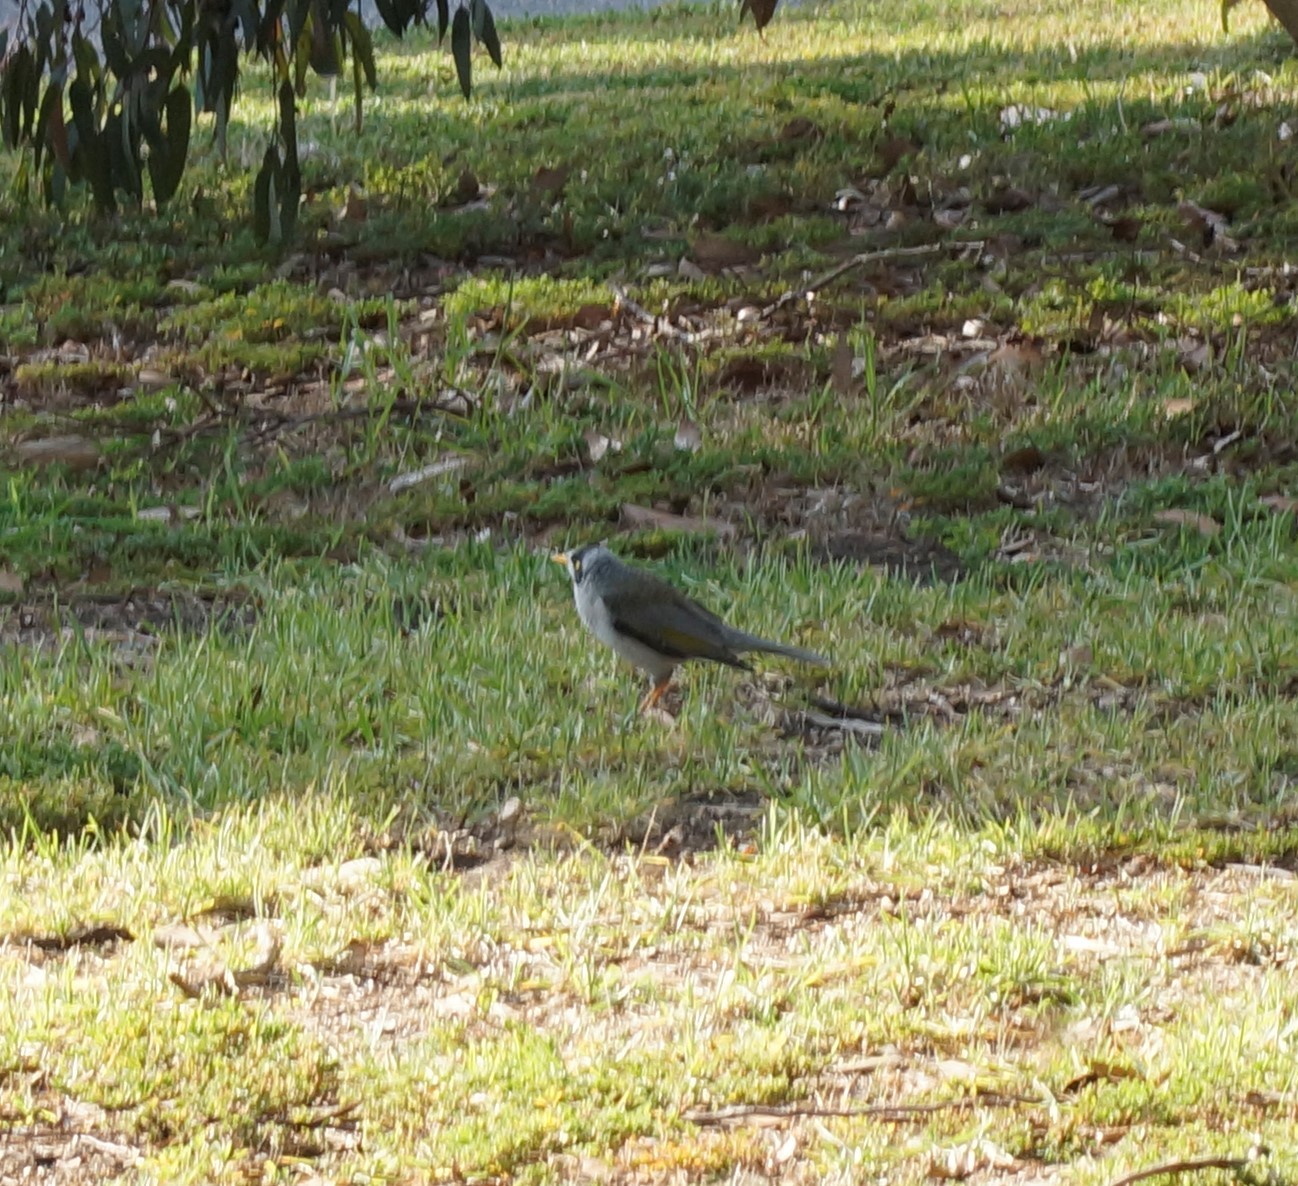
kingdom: Animalia
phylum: Chordata
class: Aves
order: Passeriformes
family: Meliphagidae
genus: Manorina
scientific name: Manorina melanocephala
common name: Noisy miner
